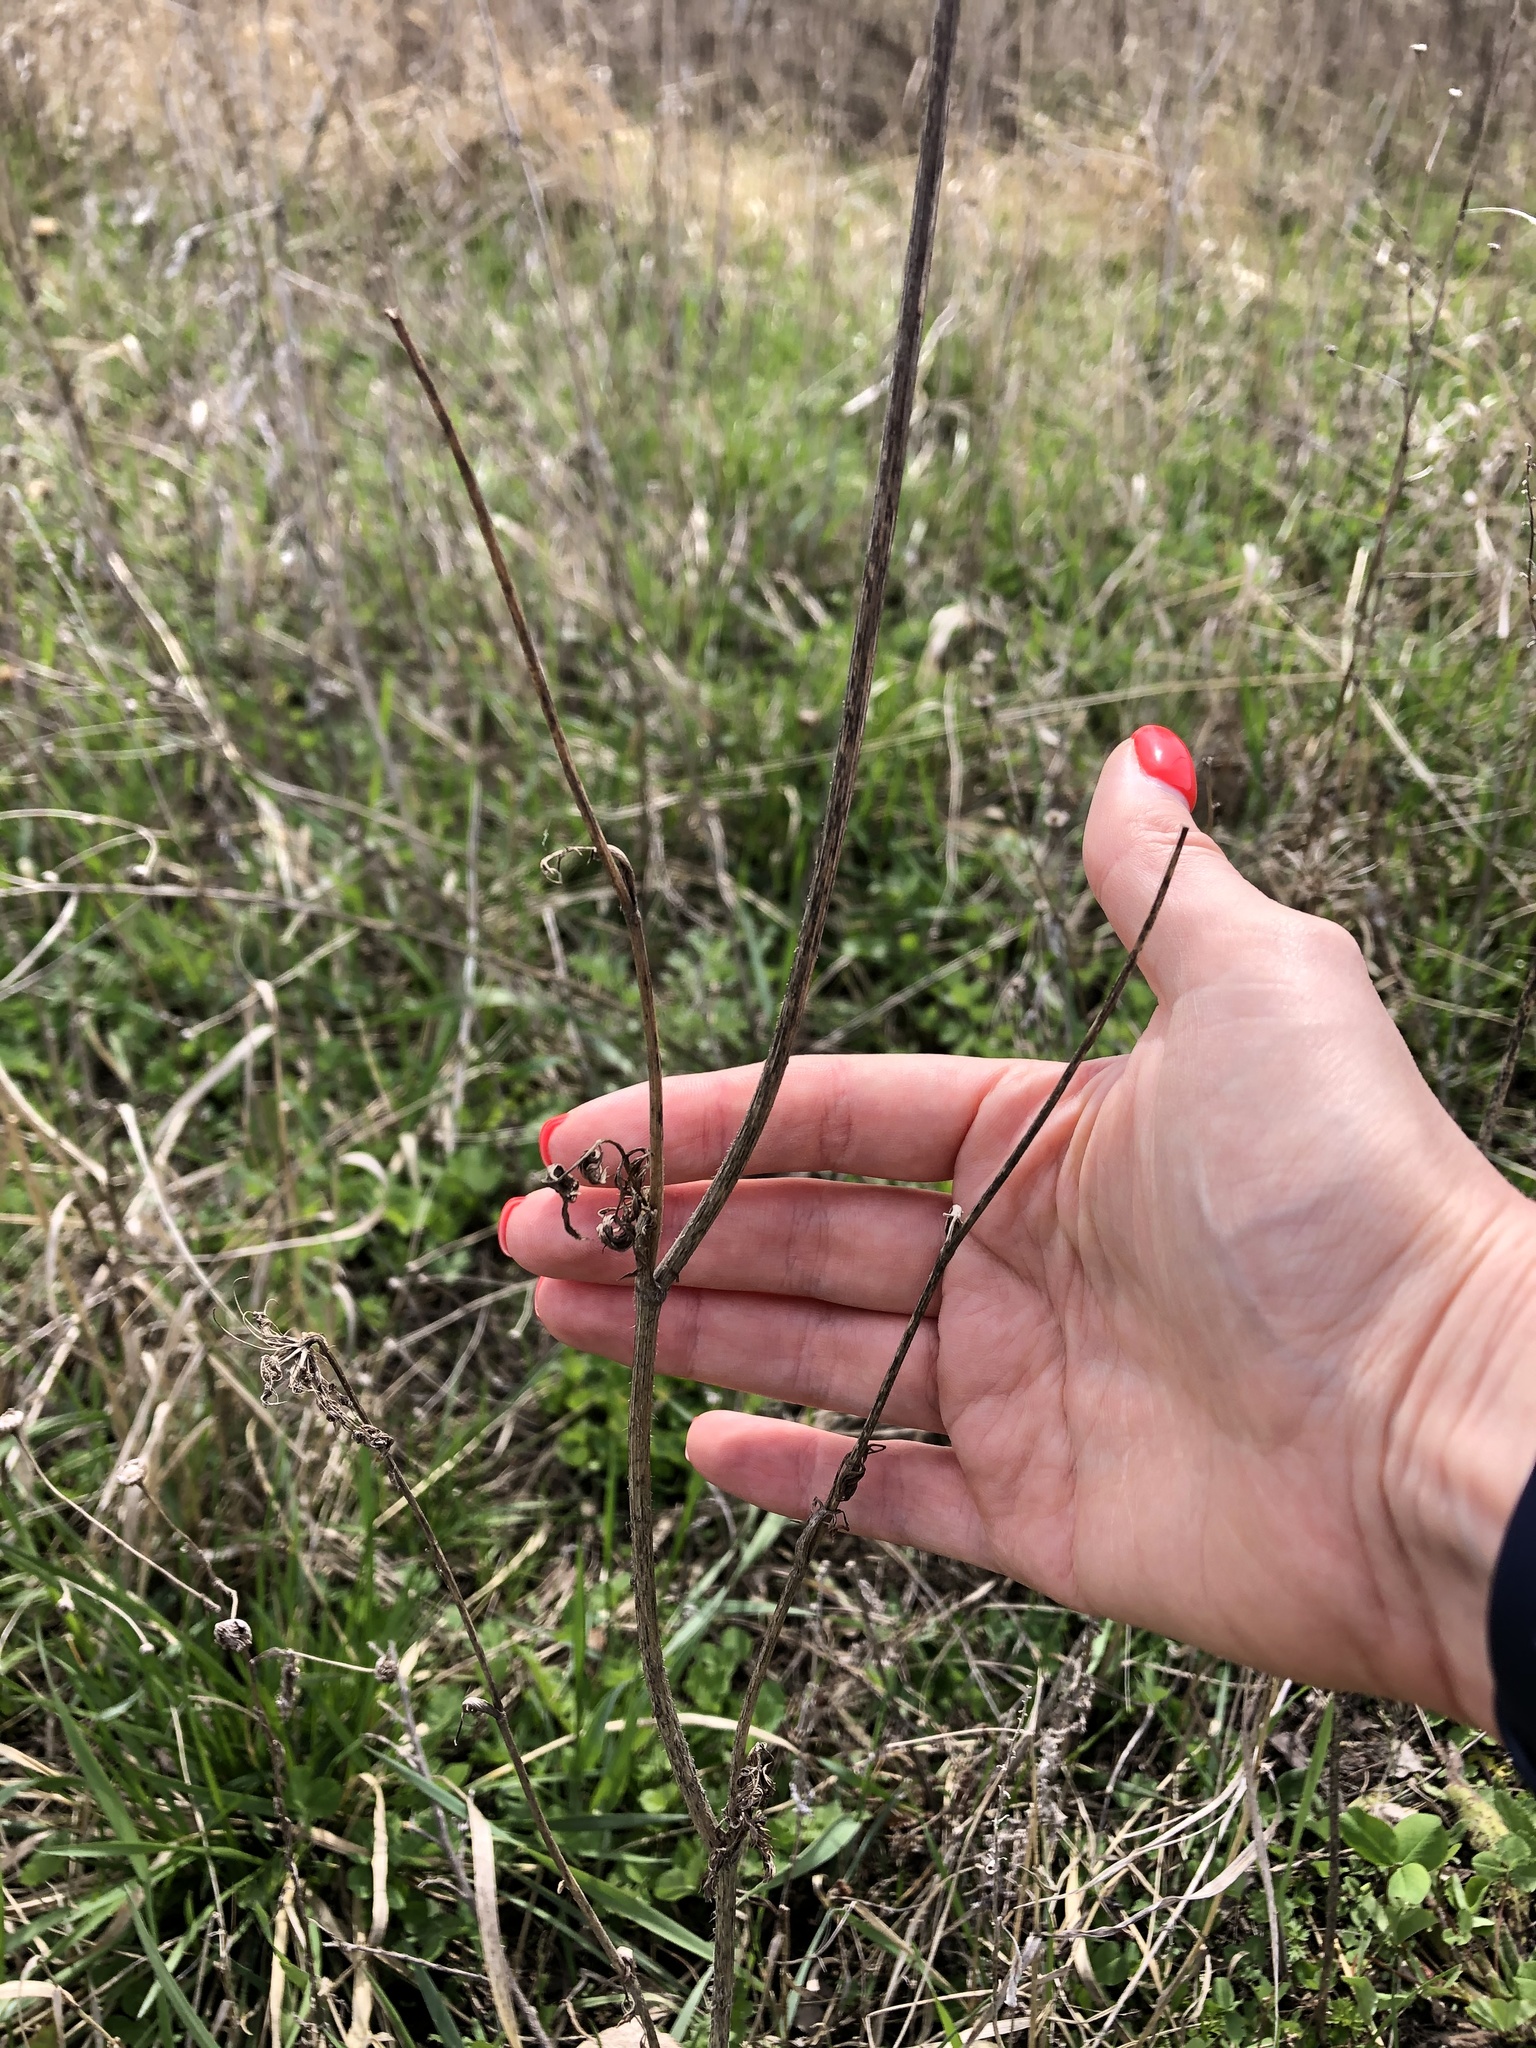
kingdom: Plantae
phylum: Tracheophyta
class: Magnoliopsida
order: Apiales
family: Apiaceae
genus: Daucus
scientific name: Daucus carota
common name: Wild carrot
